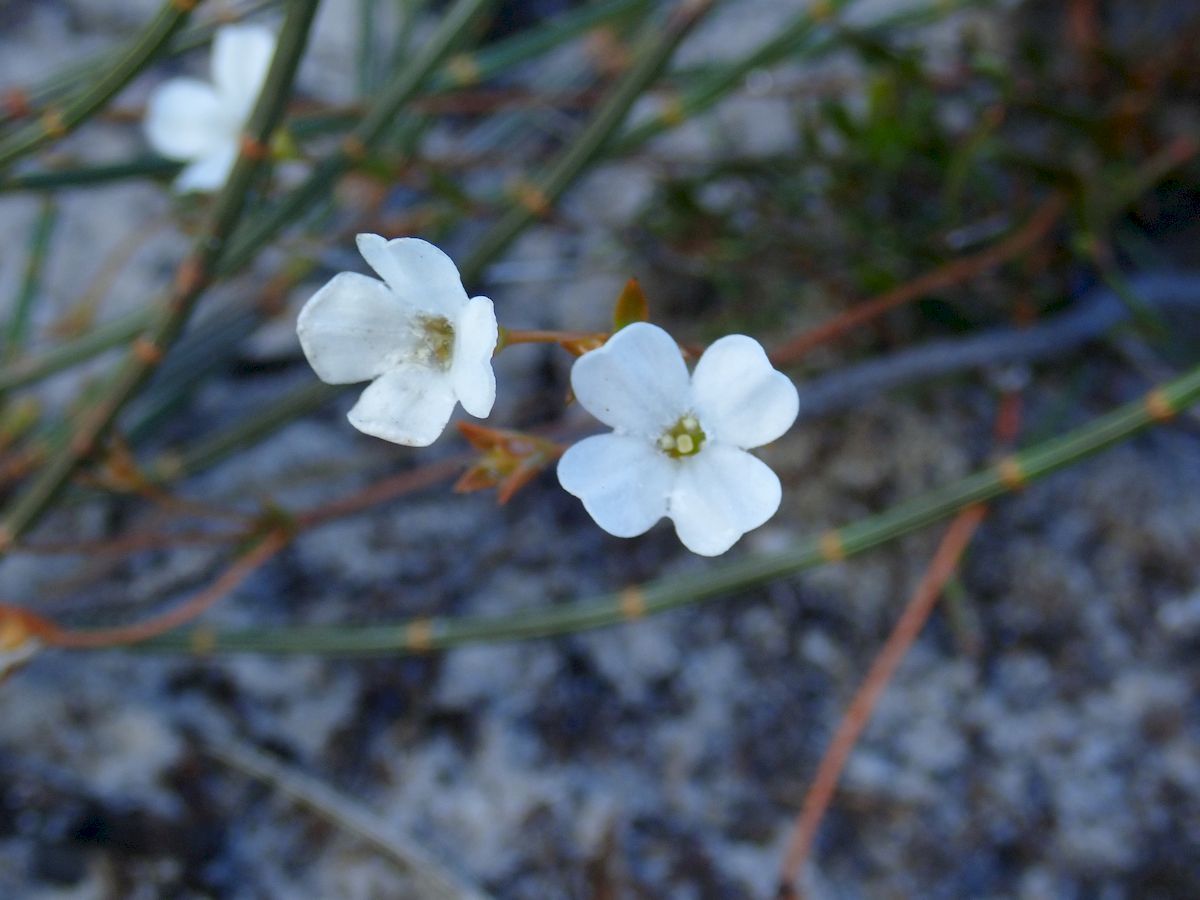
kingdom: Plantae
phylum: Tracheophyta
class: Magnoliopsida
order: Gentianales
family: Loganiaceae
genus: Mitrasacme
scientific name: Mitrasacme polymorpha
